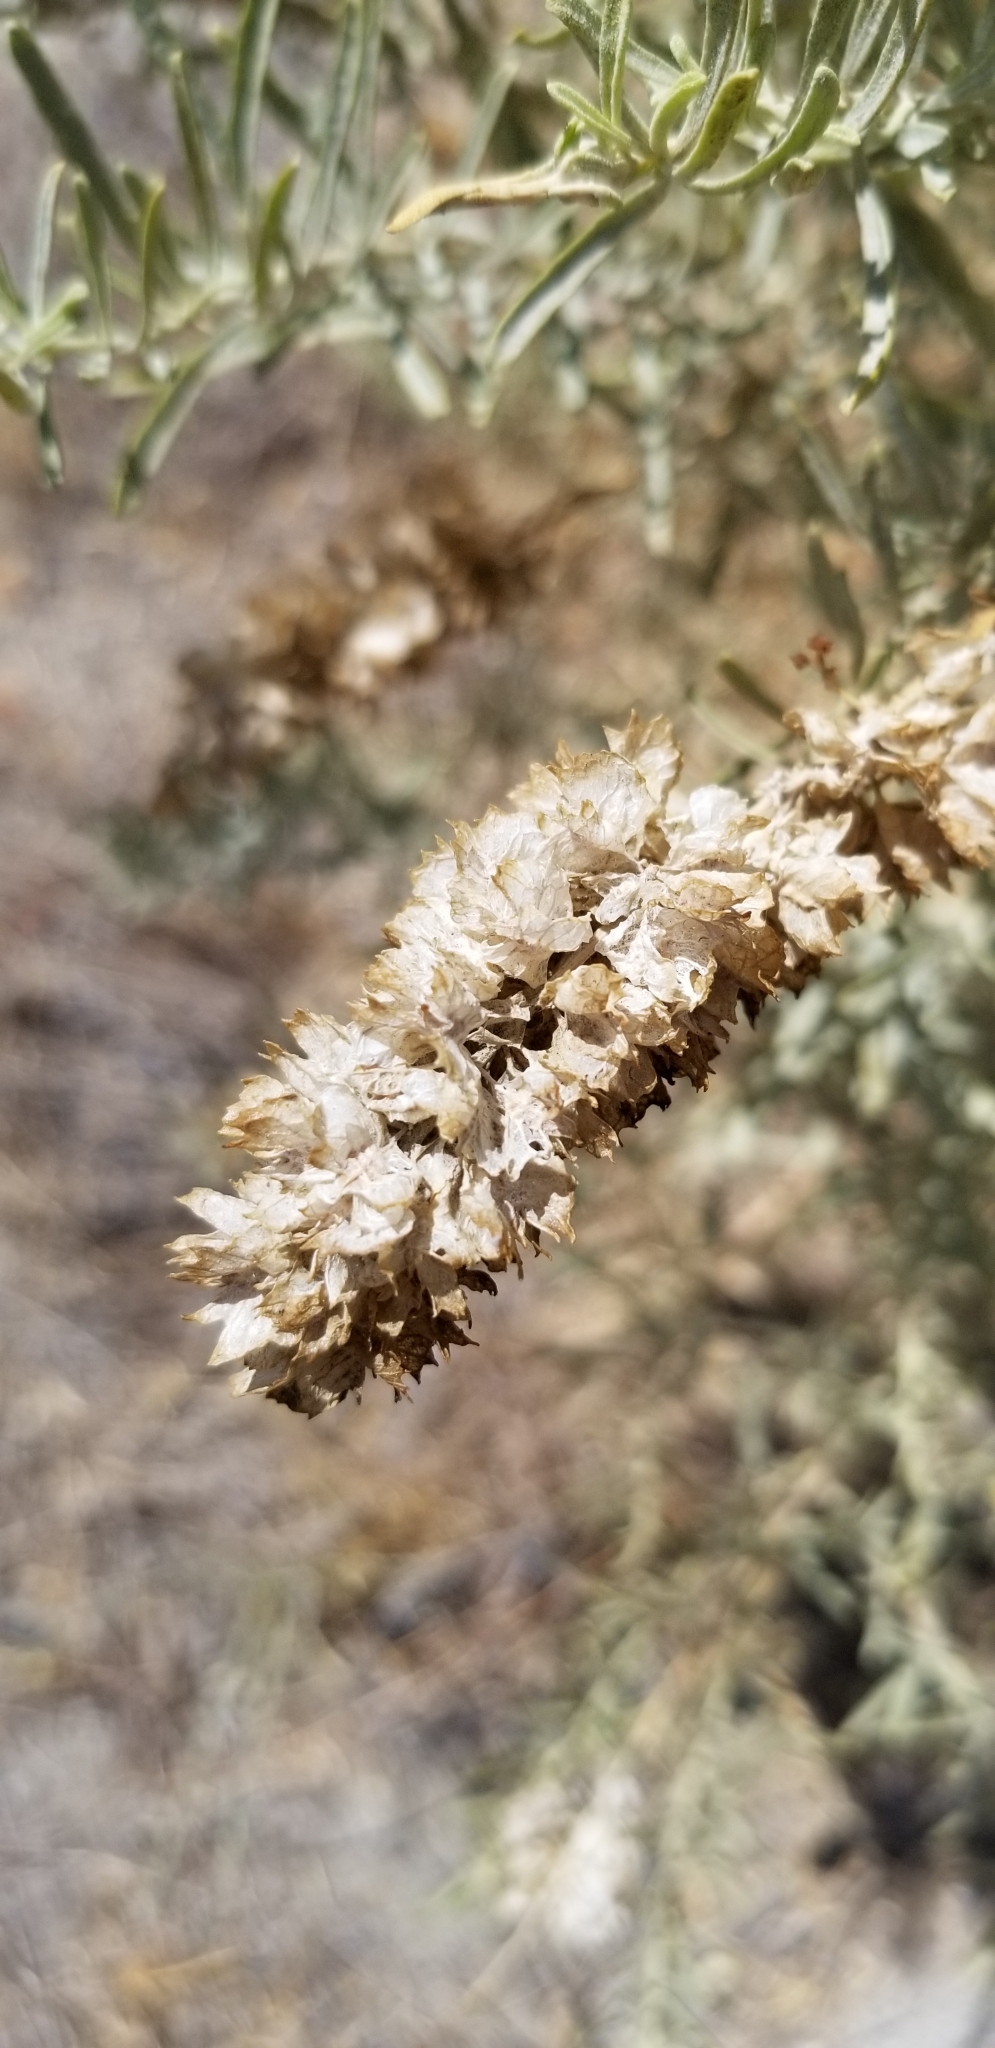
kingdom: Plantae
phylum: Tracheophyta
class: Magnoliopsida
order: Caryophyllales
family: Amaranthaceae
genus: Atriplex
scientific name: Atriplex canescens
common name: Four-wing saltbush
